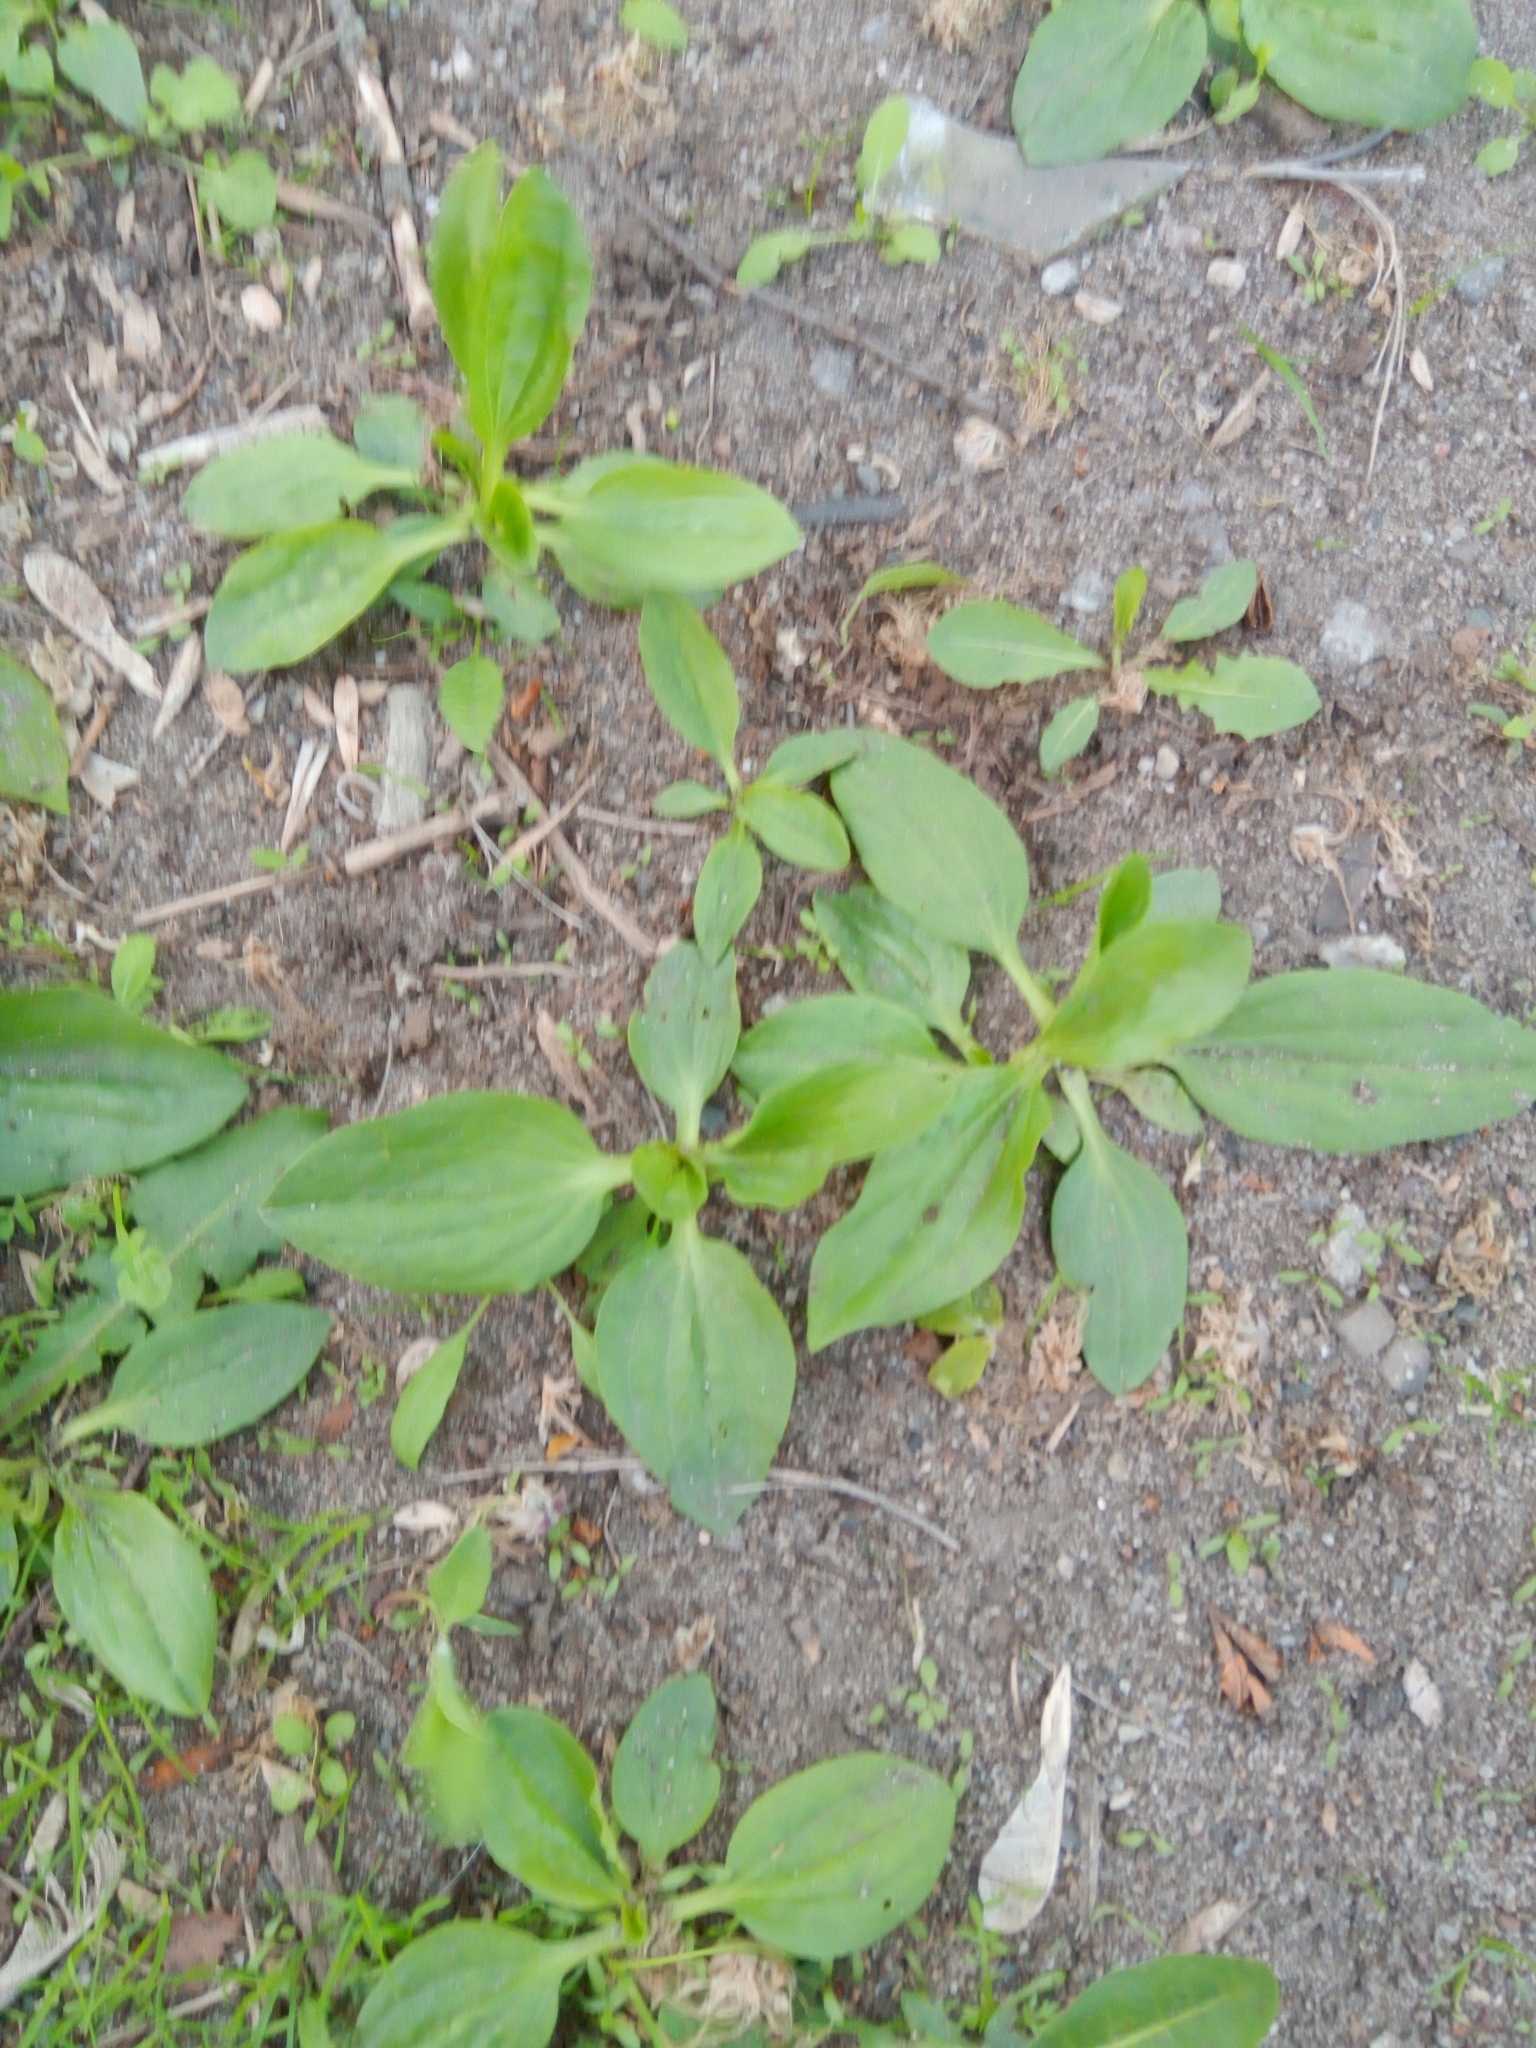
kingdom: Plantae
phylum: Tracheophyta
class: Magnoliopsida
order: Lamiales
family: Plantaginaceae
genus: Plantago
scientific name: Plantago major
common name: Common plantain
